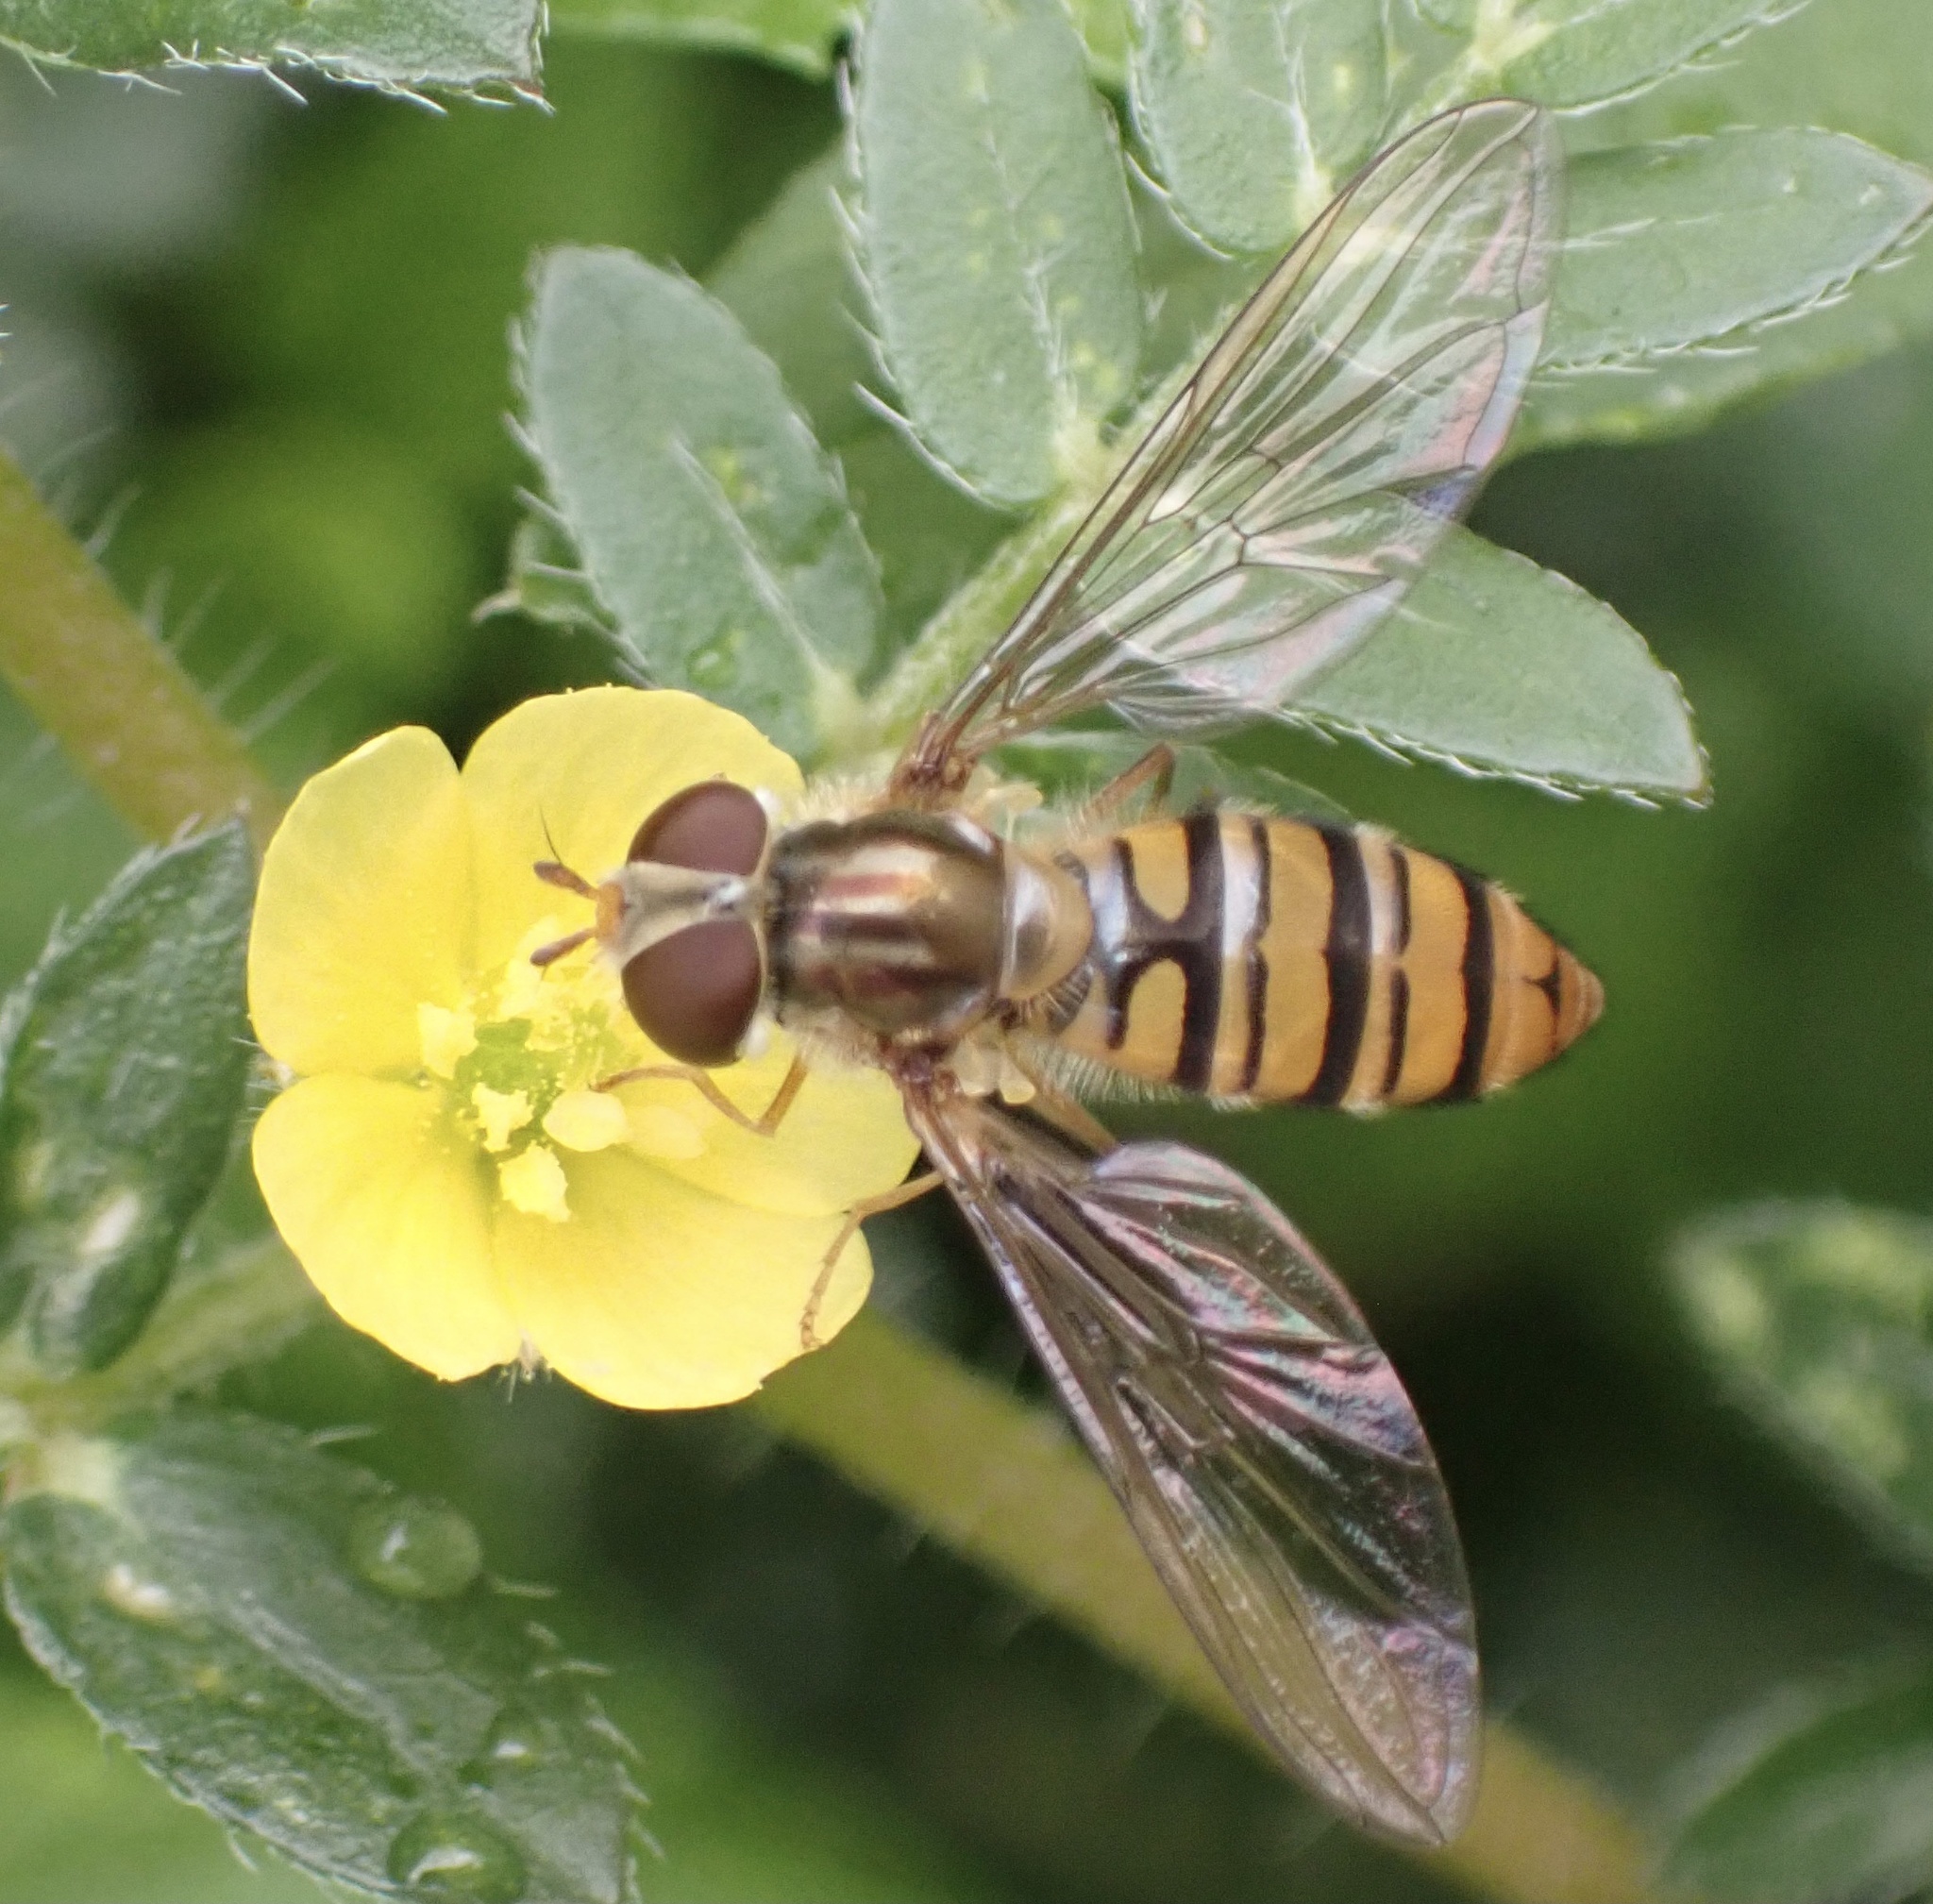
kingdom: Animalia
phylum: Arthropoda
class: Insecta
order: Diptera
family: Syrphidae
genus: Episyrphus
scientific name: Episyrphus balteatus
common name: Marmalade hoverfly
